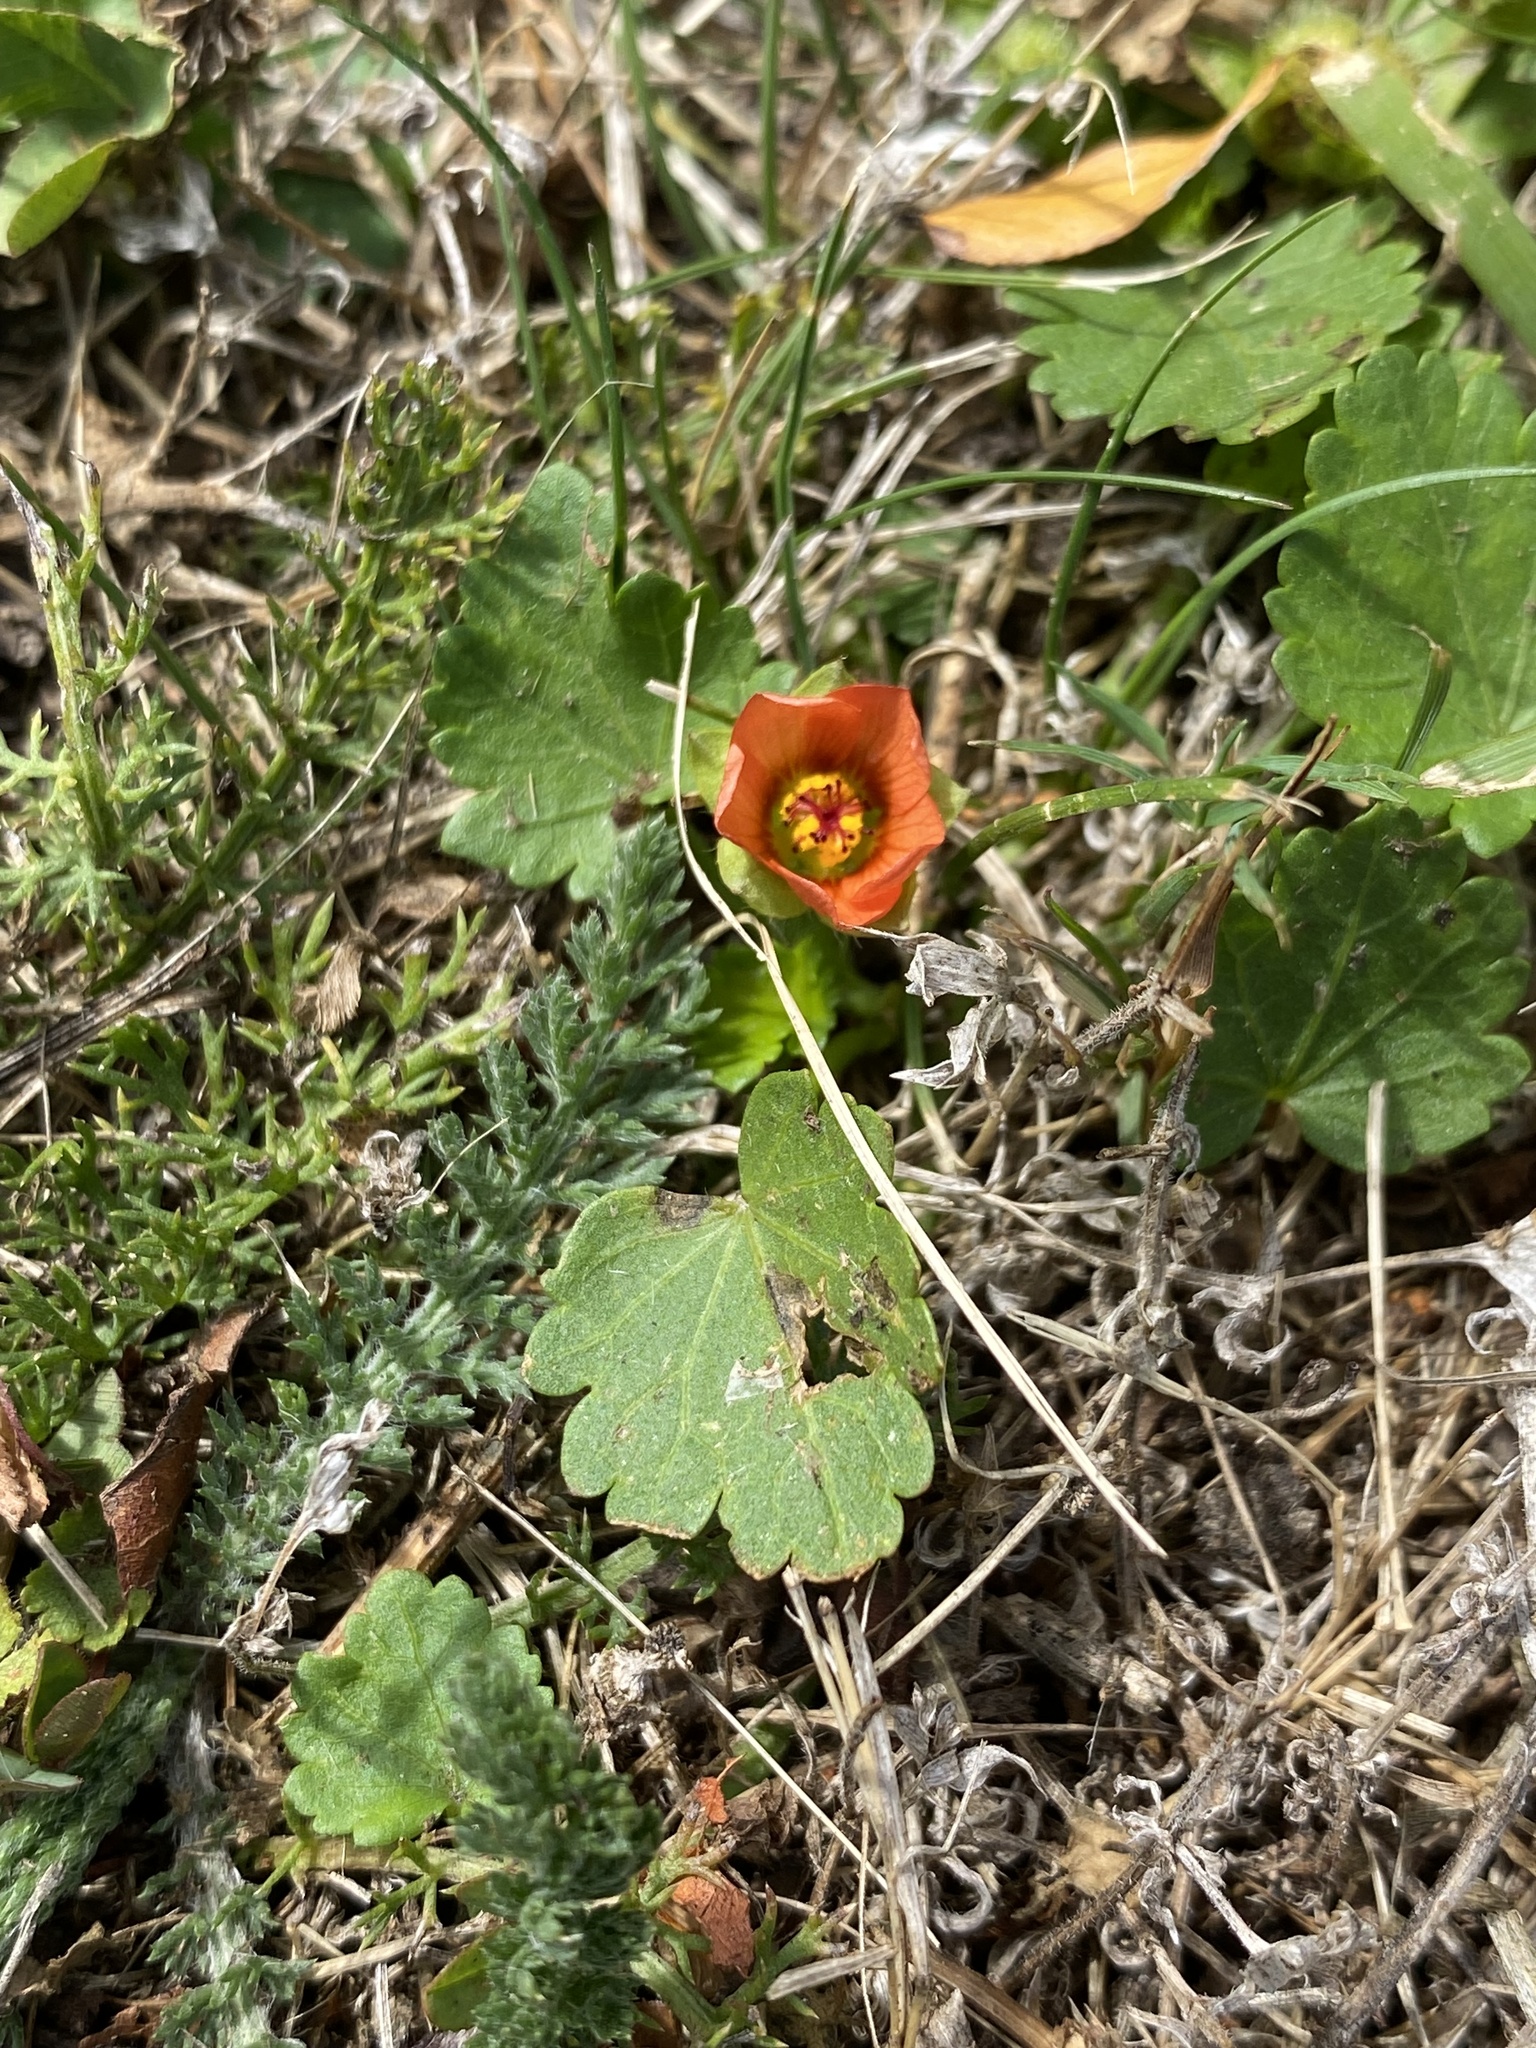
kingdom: Plantae
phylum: Tracheophyta
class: Magnoliopsida
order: Malvales
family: Malvaceae
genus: Modiola
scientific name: Modiola caroliniana
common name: Carolina bristlemallow
